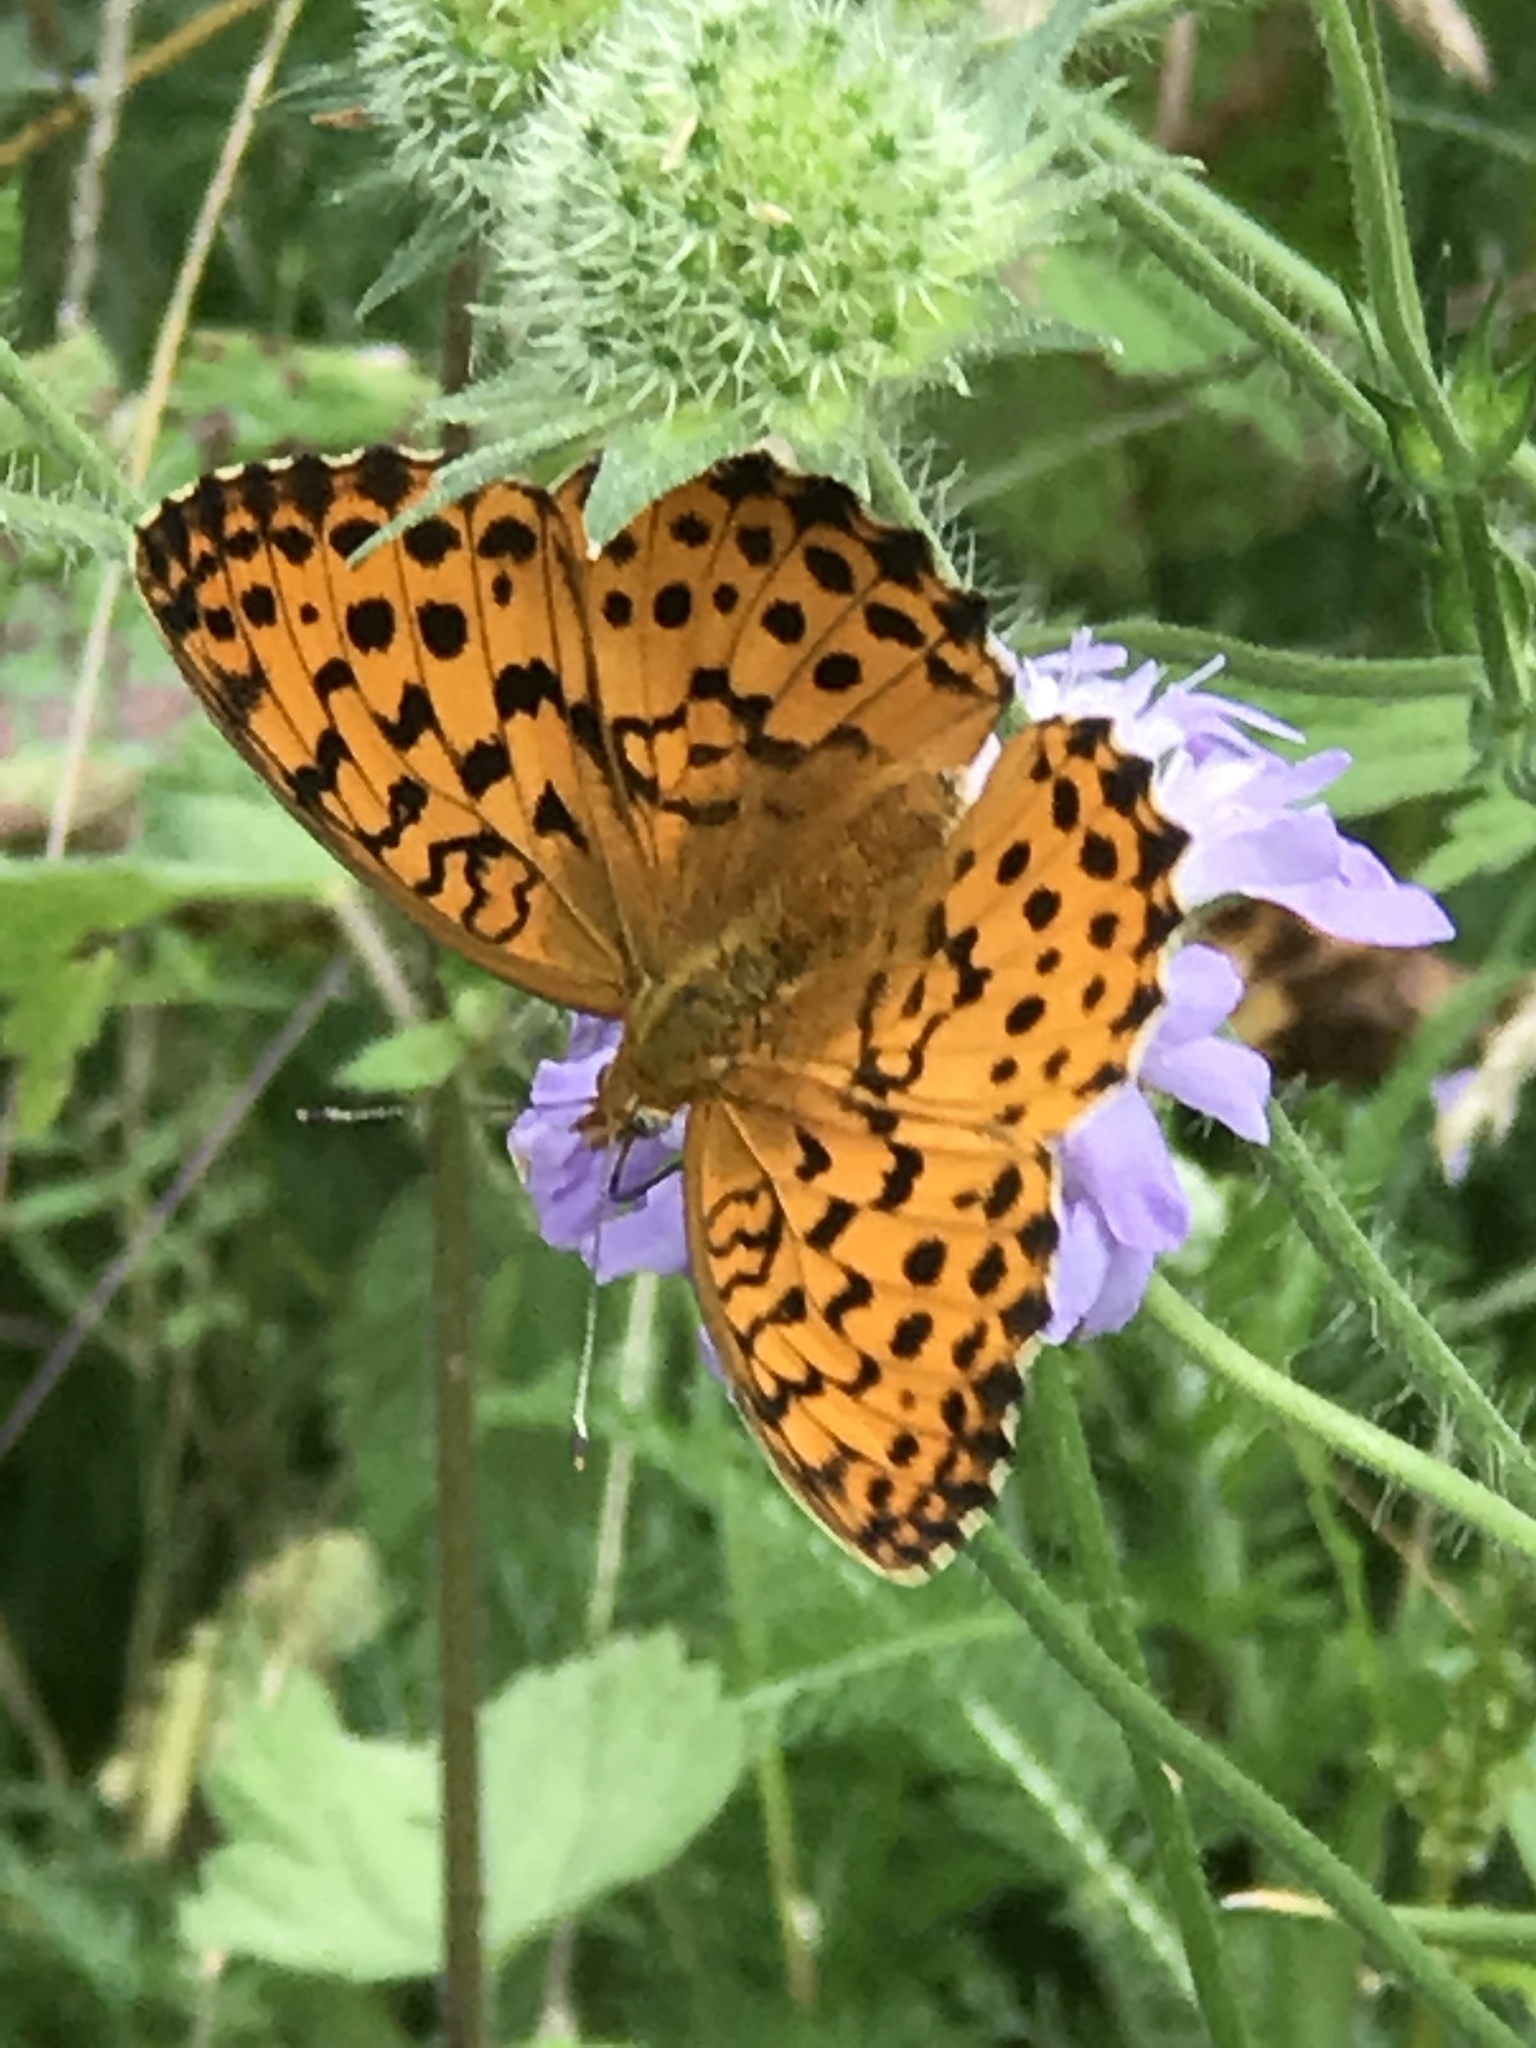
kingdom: Animalia
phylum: Arthropoda
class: Insecta
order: Lepidoptera
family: Nymphalidae
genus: Brenthis
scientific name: Brenthis daphne
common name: Marbled fritillary
